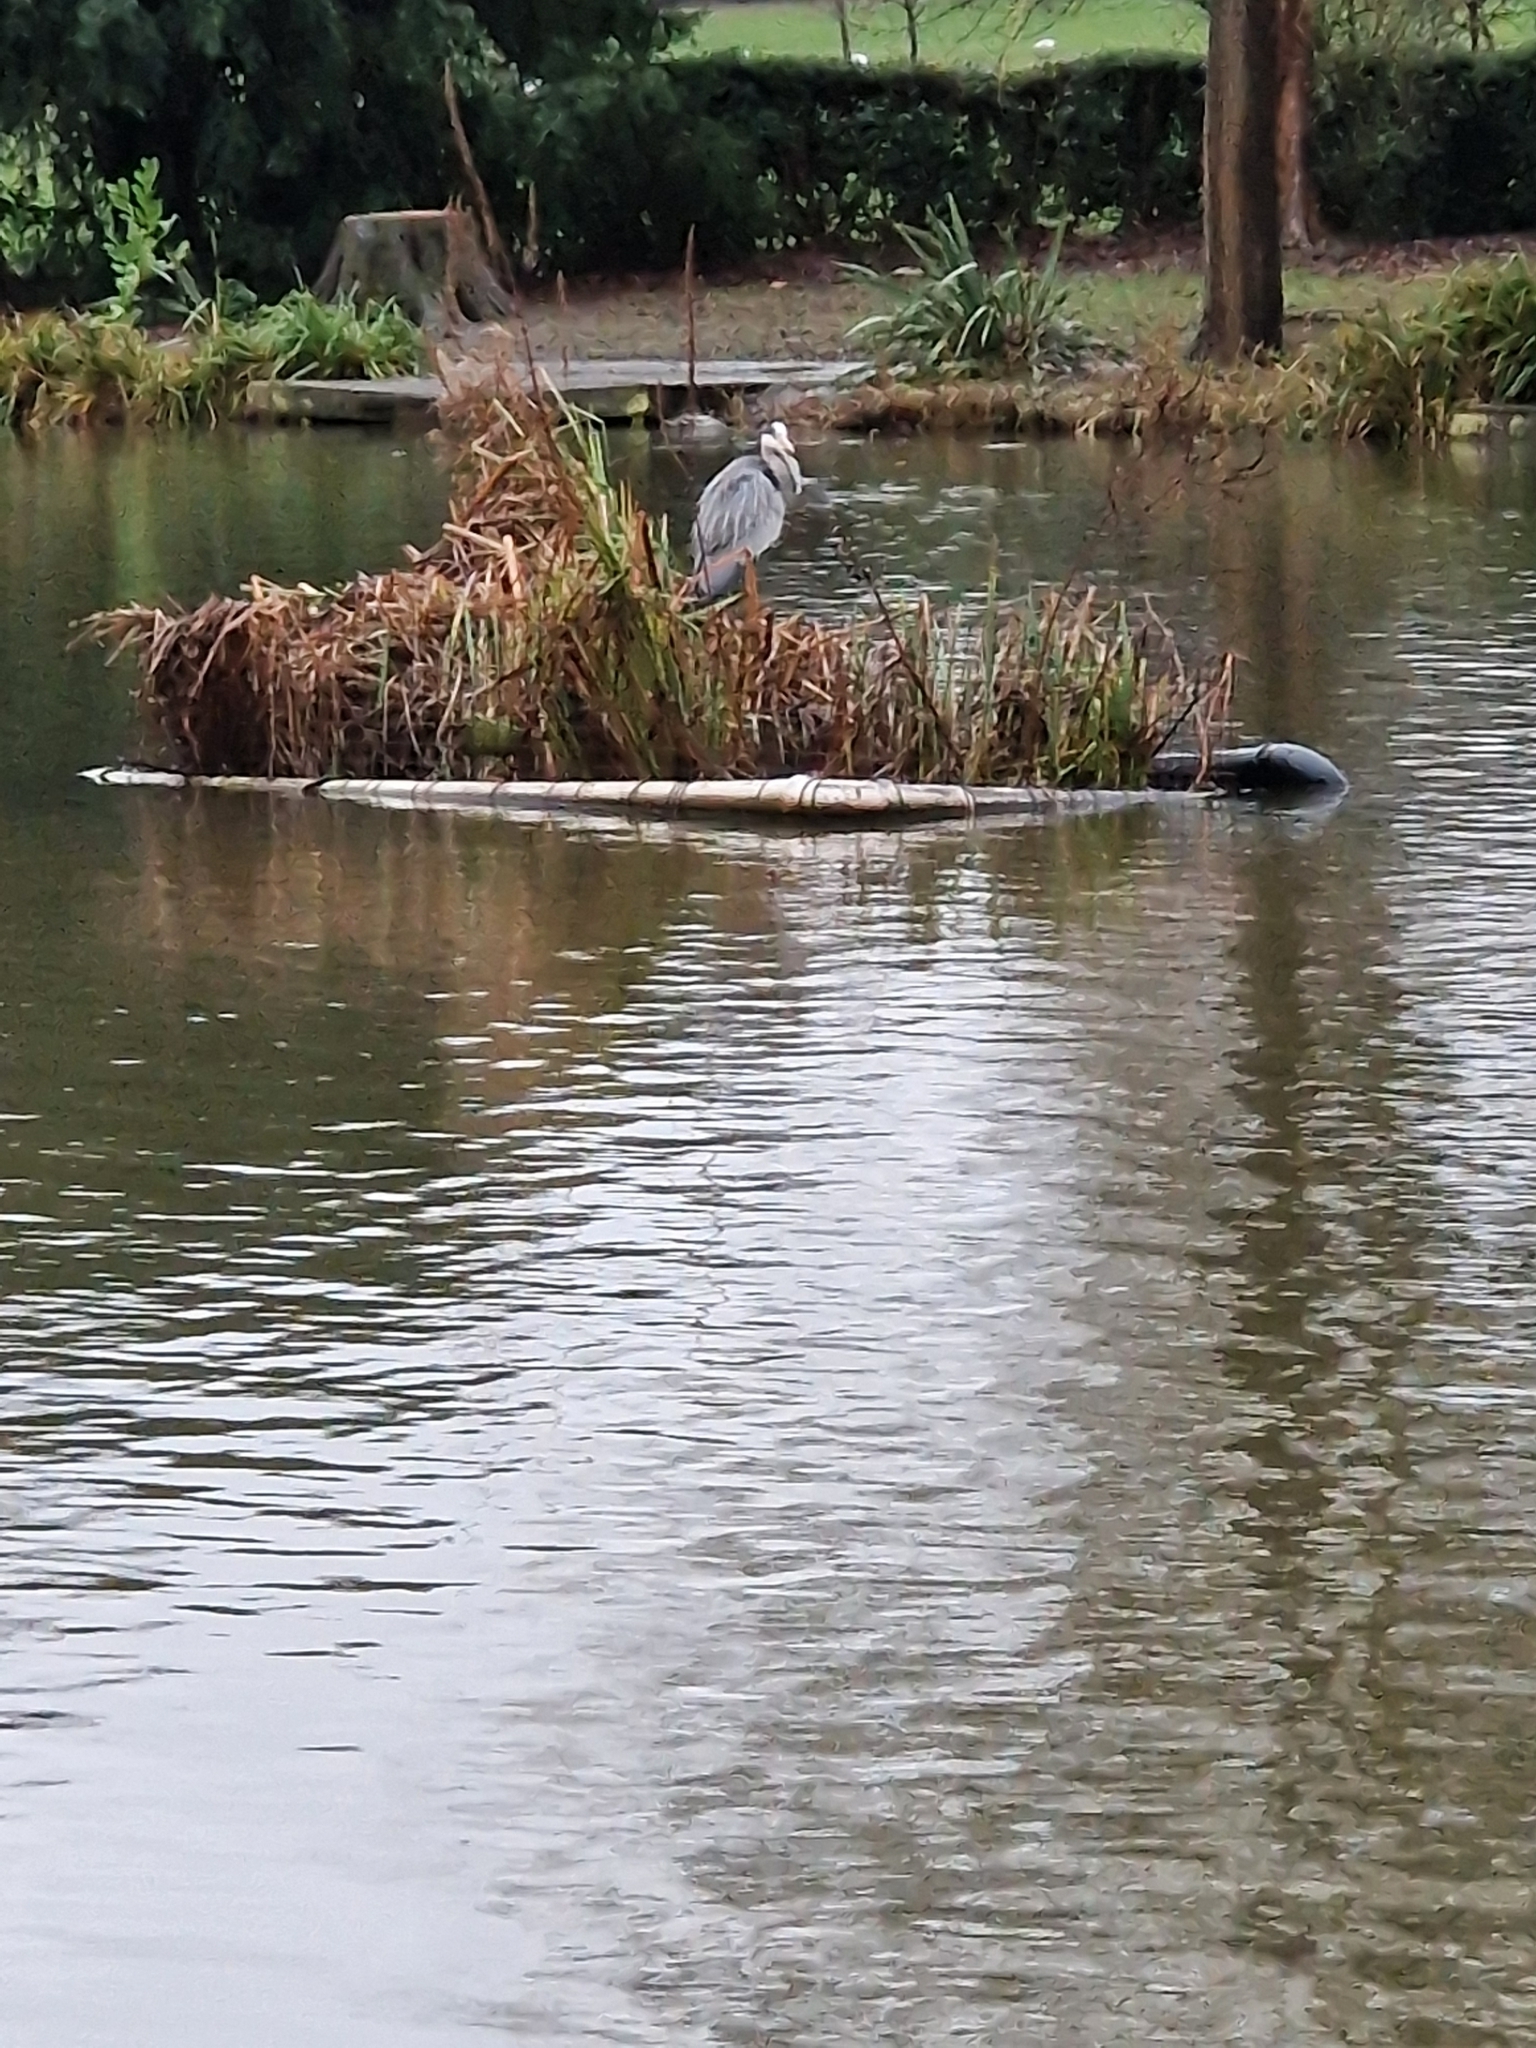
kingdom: Animalia
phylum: Chordata
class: Aves
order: Pelecaniformes
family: Ardeidae
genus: Ardea
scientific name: Ardea cinerea
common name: Grey heron
